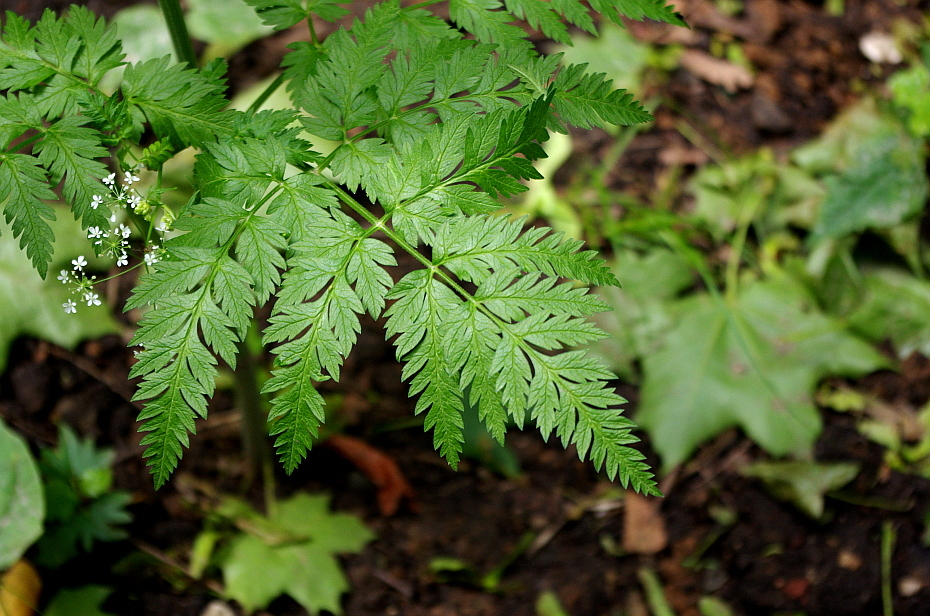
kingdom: Plantae
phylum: Tracheophyta
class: Magnoliopsida
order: Apiales
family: Apiaceae
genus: Anthriscus
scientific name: Anthriscus sylvestris
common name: Cow parsley
